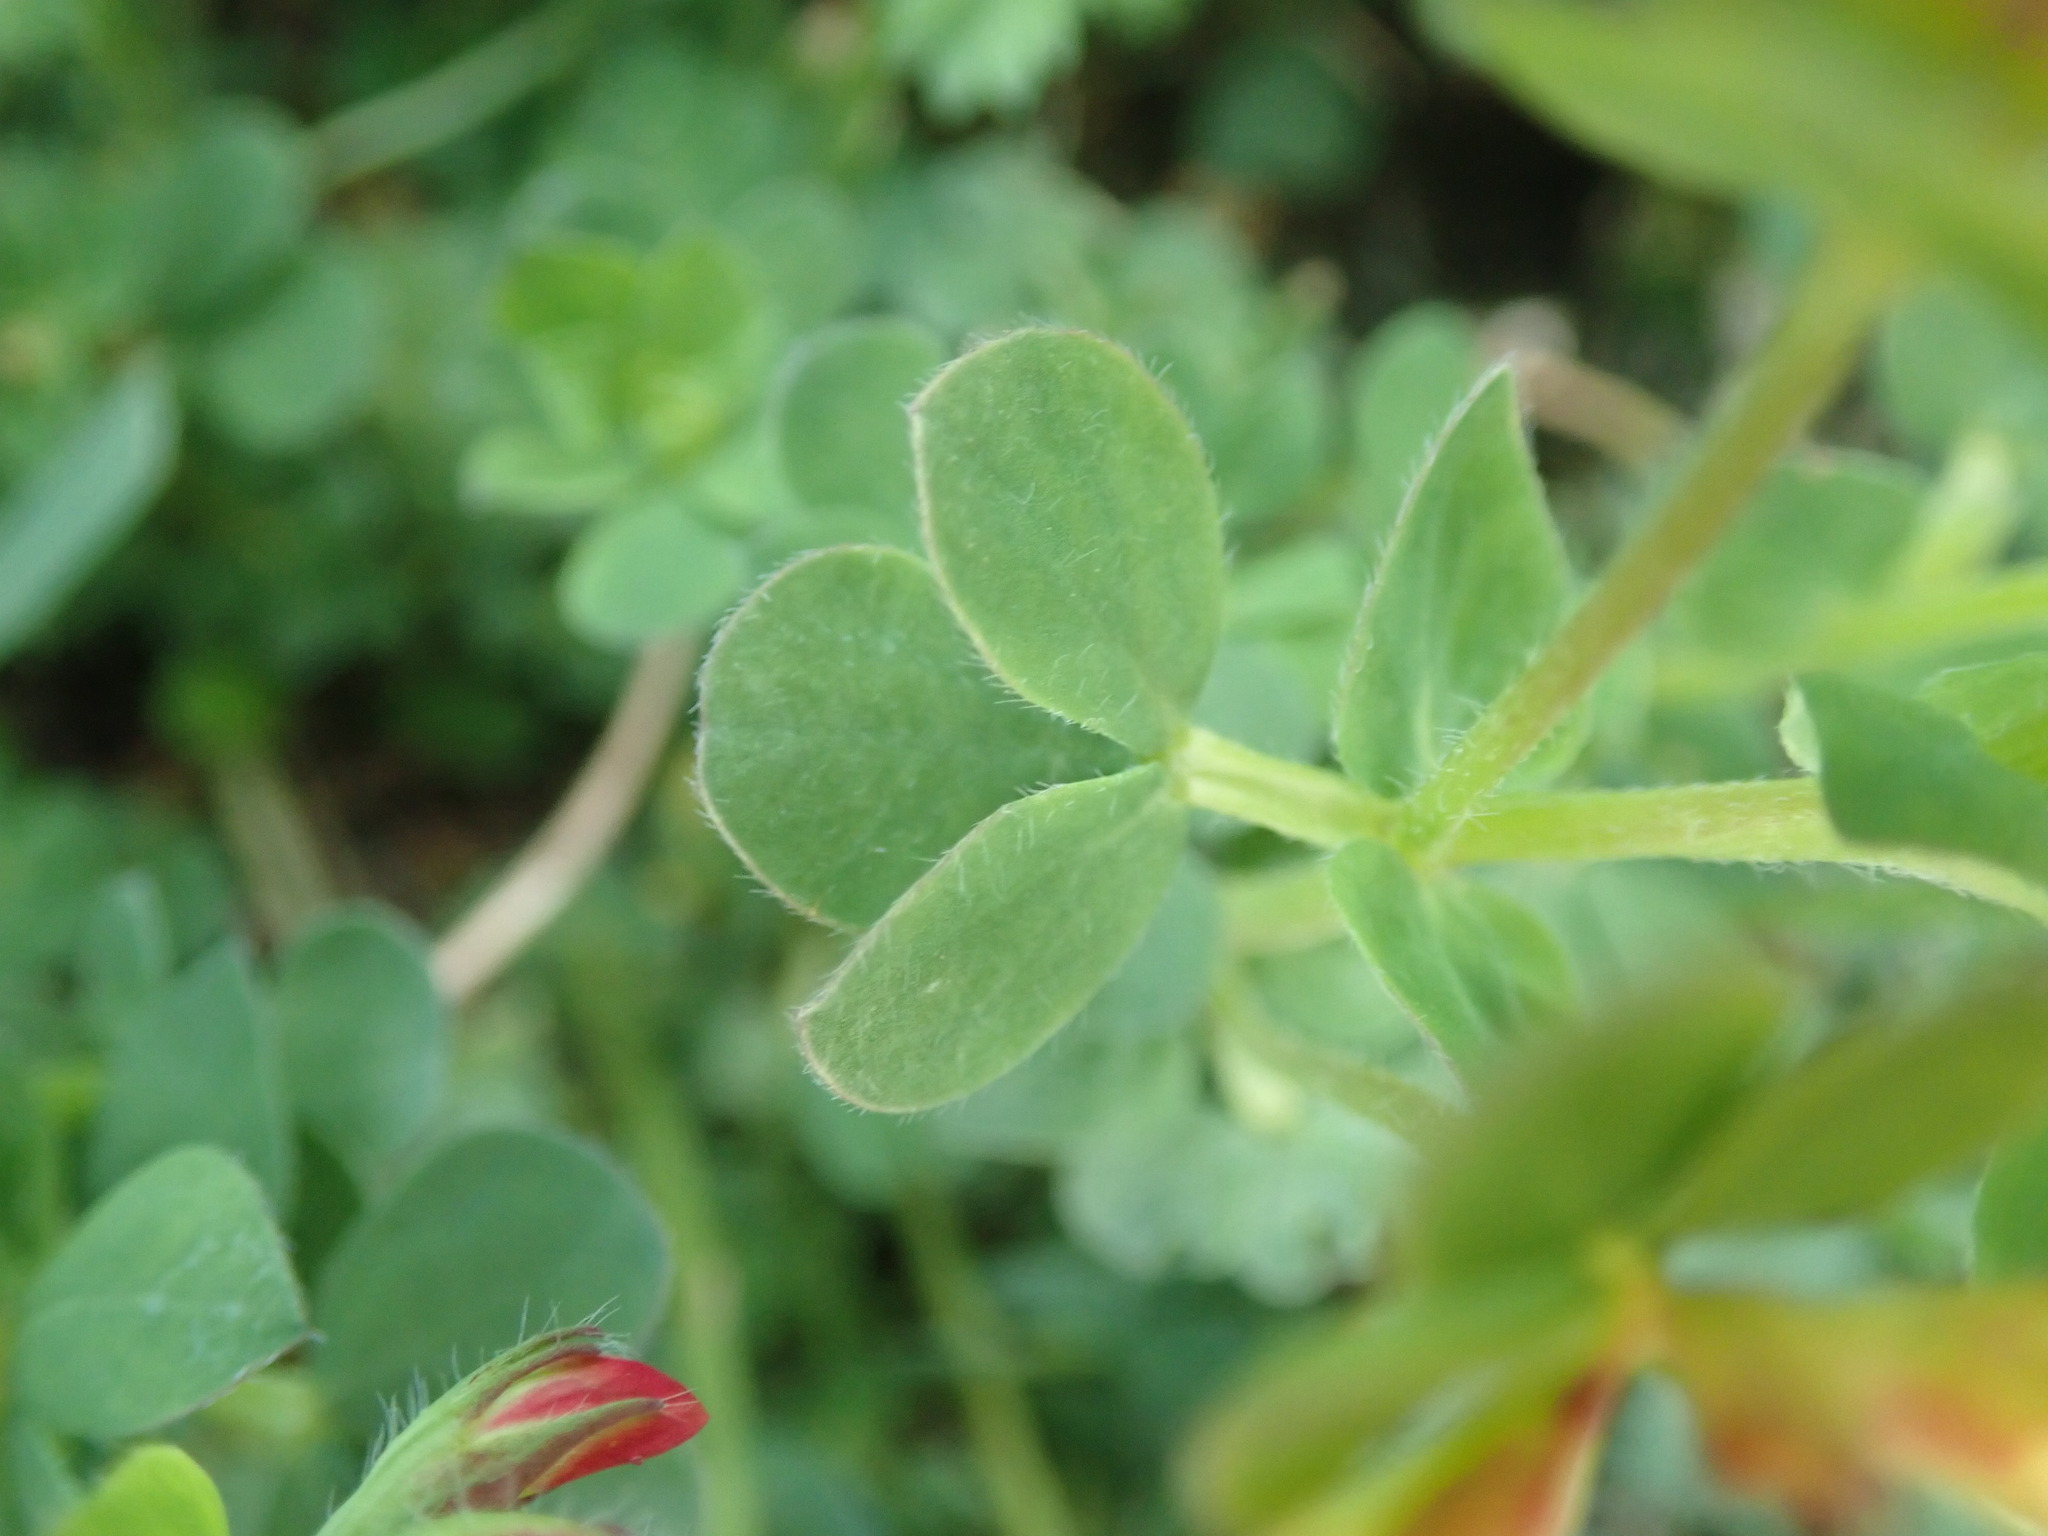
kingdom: Plantae
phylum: Tracheophyta
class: Magnoliopsida
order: Fabales
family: Fabaceae
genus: Lotus
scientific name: Lotus corniculatus
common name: Common bird's-foot-trefoil
